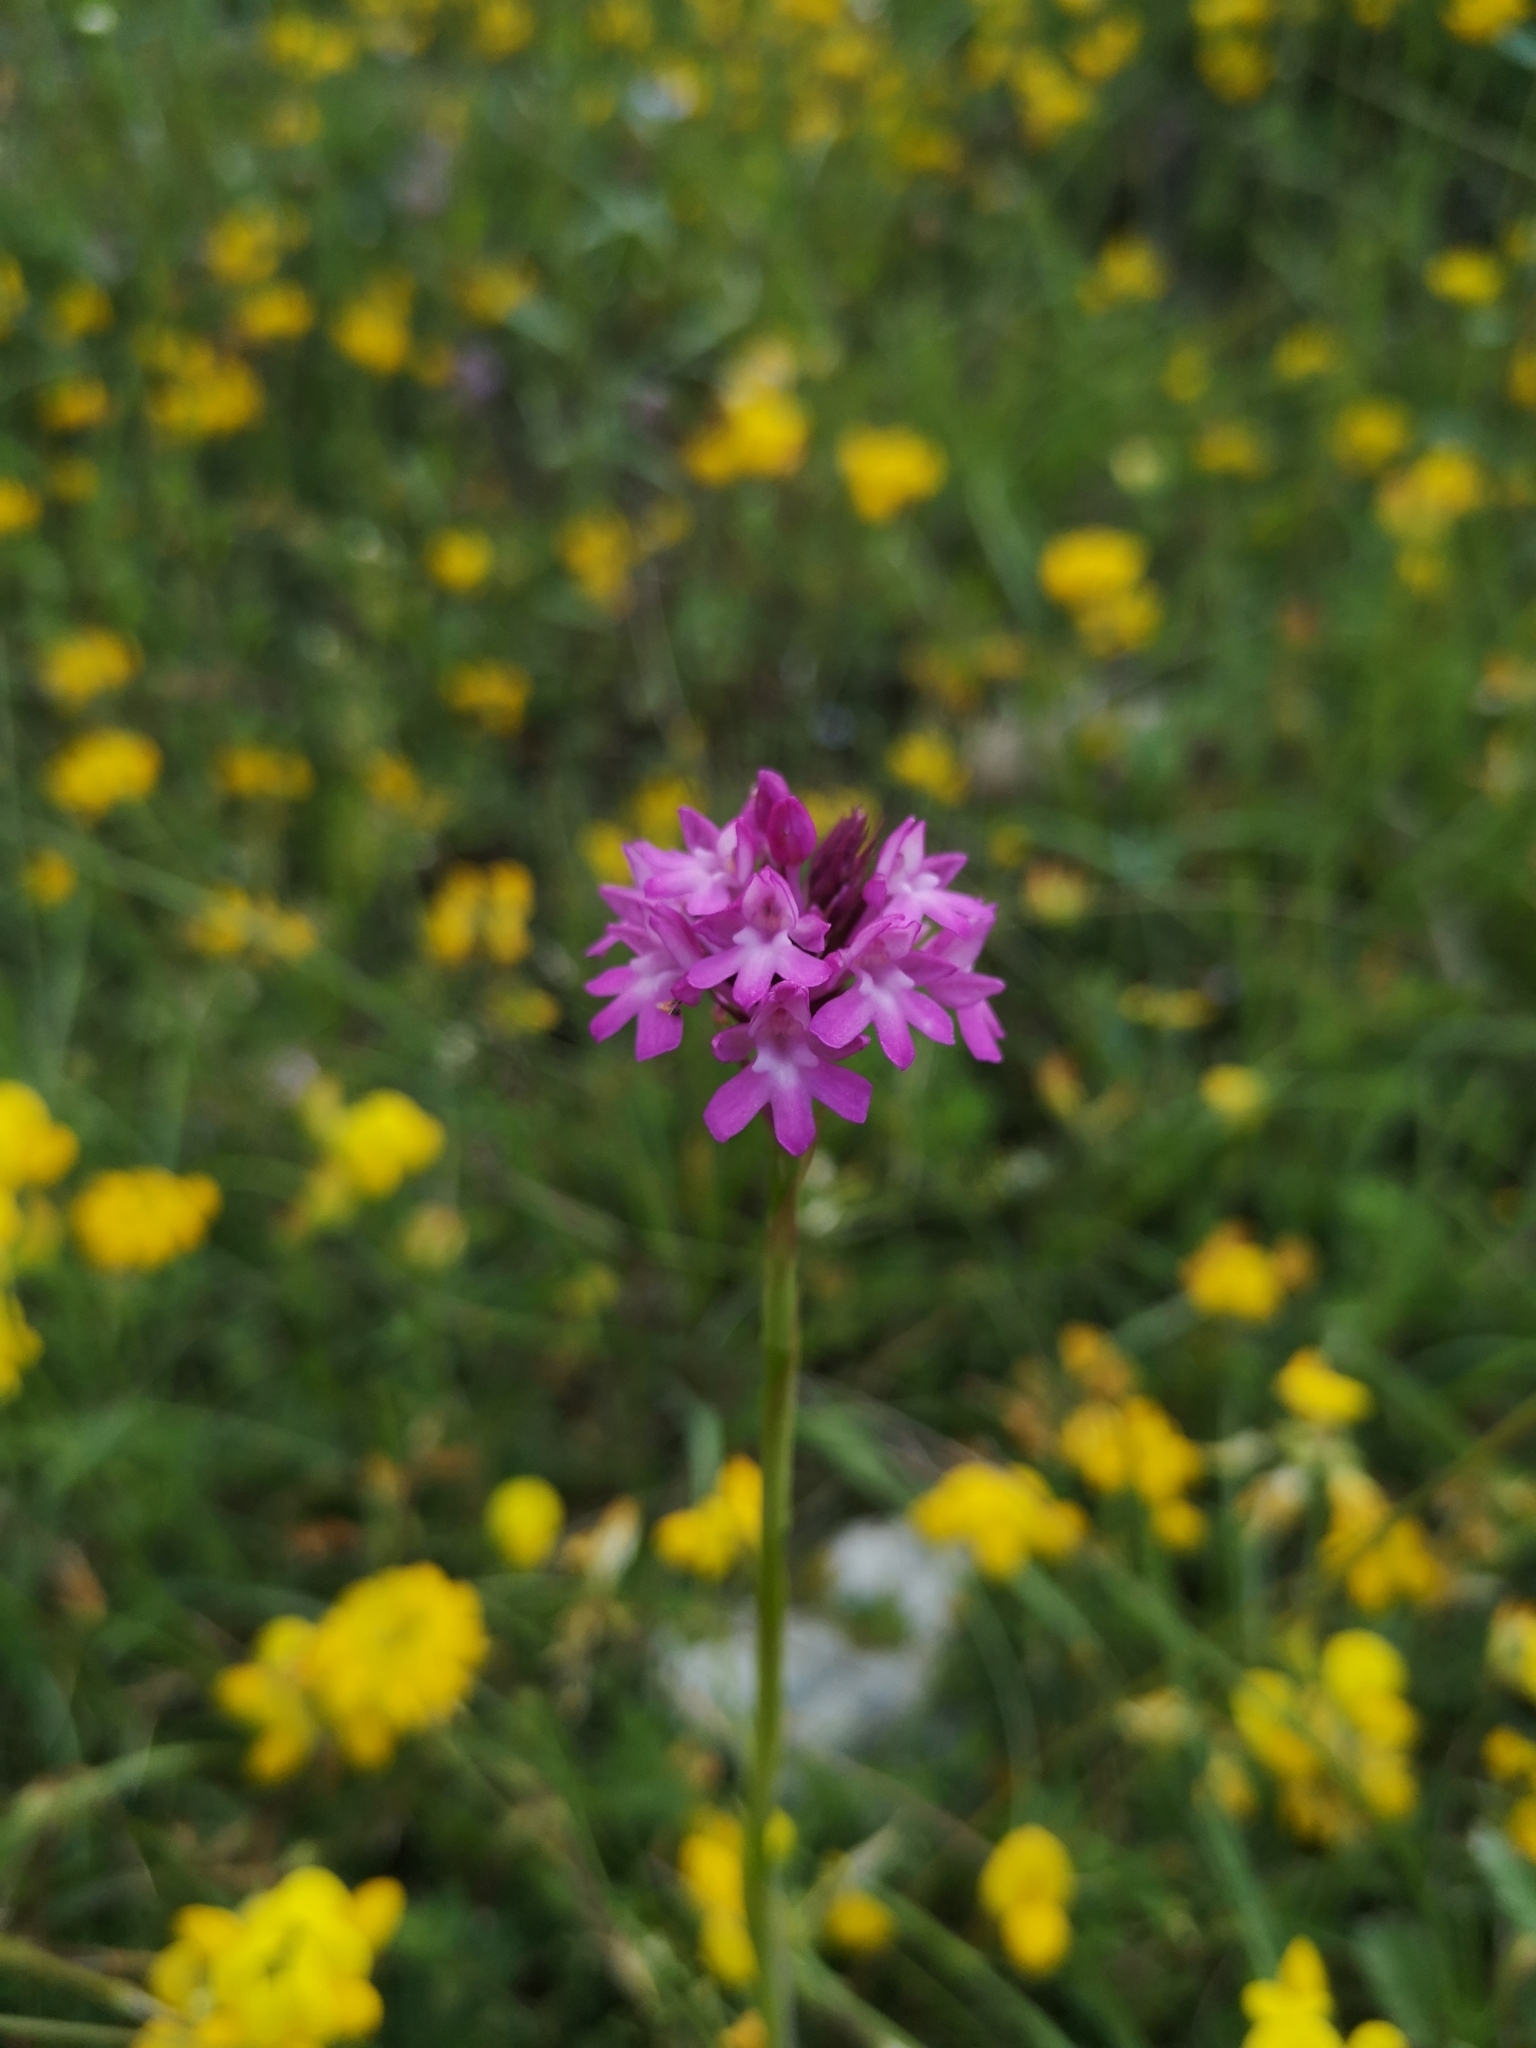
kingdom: Plantae
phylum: Tracheophyta
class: Liliopsida
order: Asparagales
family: Orchidaceae
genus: Anacamptis
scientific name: Anacamptis pyramidalis
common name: Pyramidal orchid
